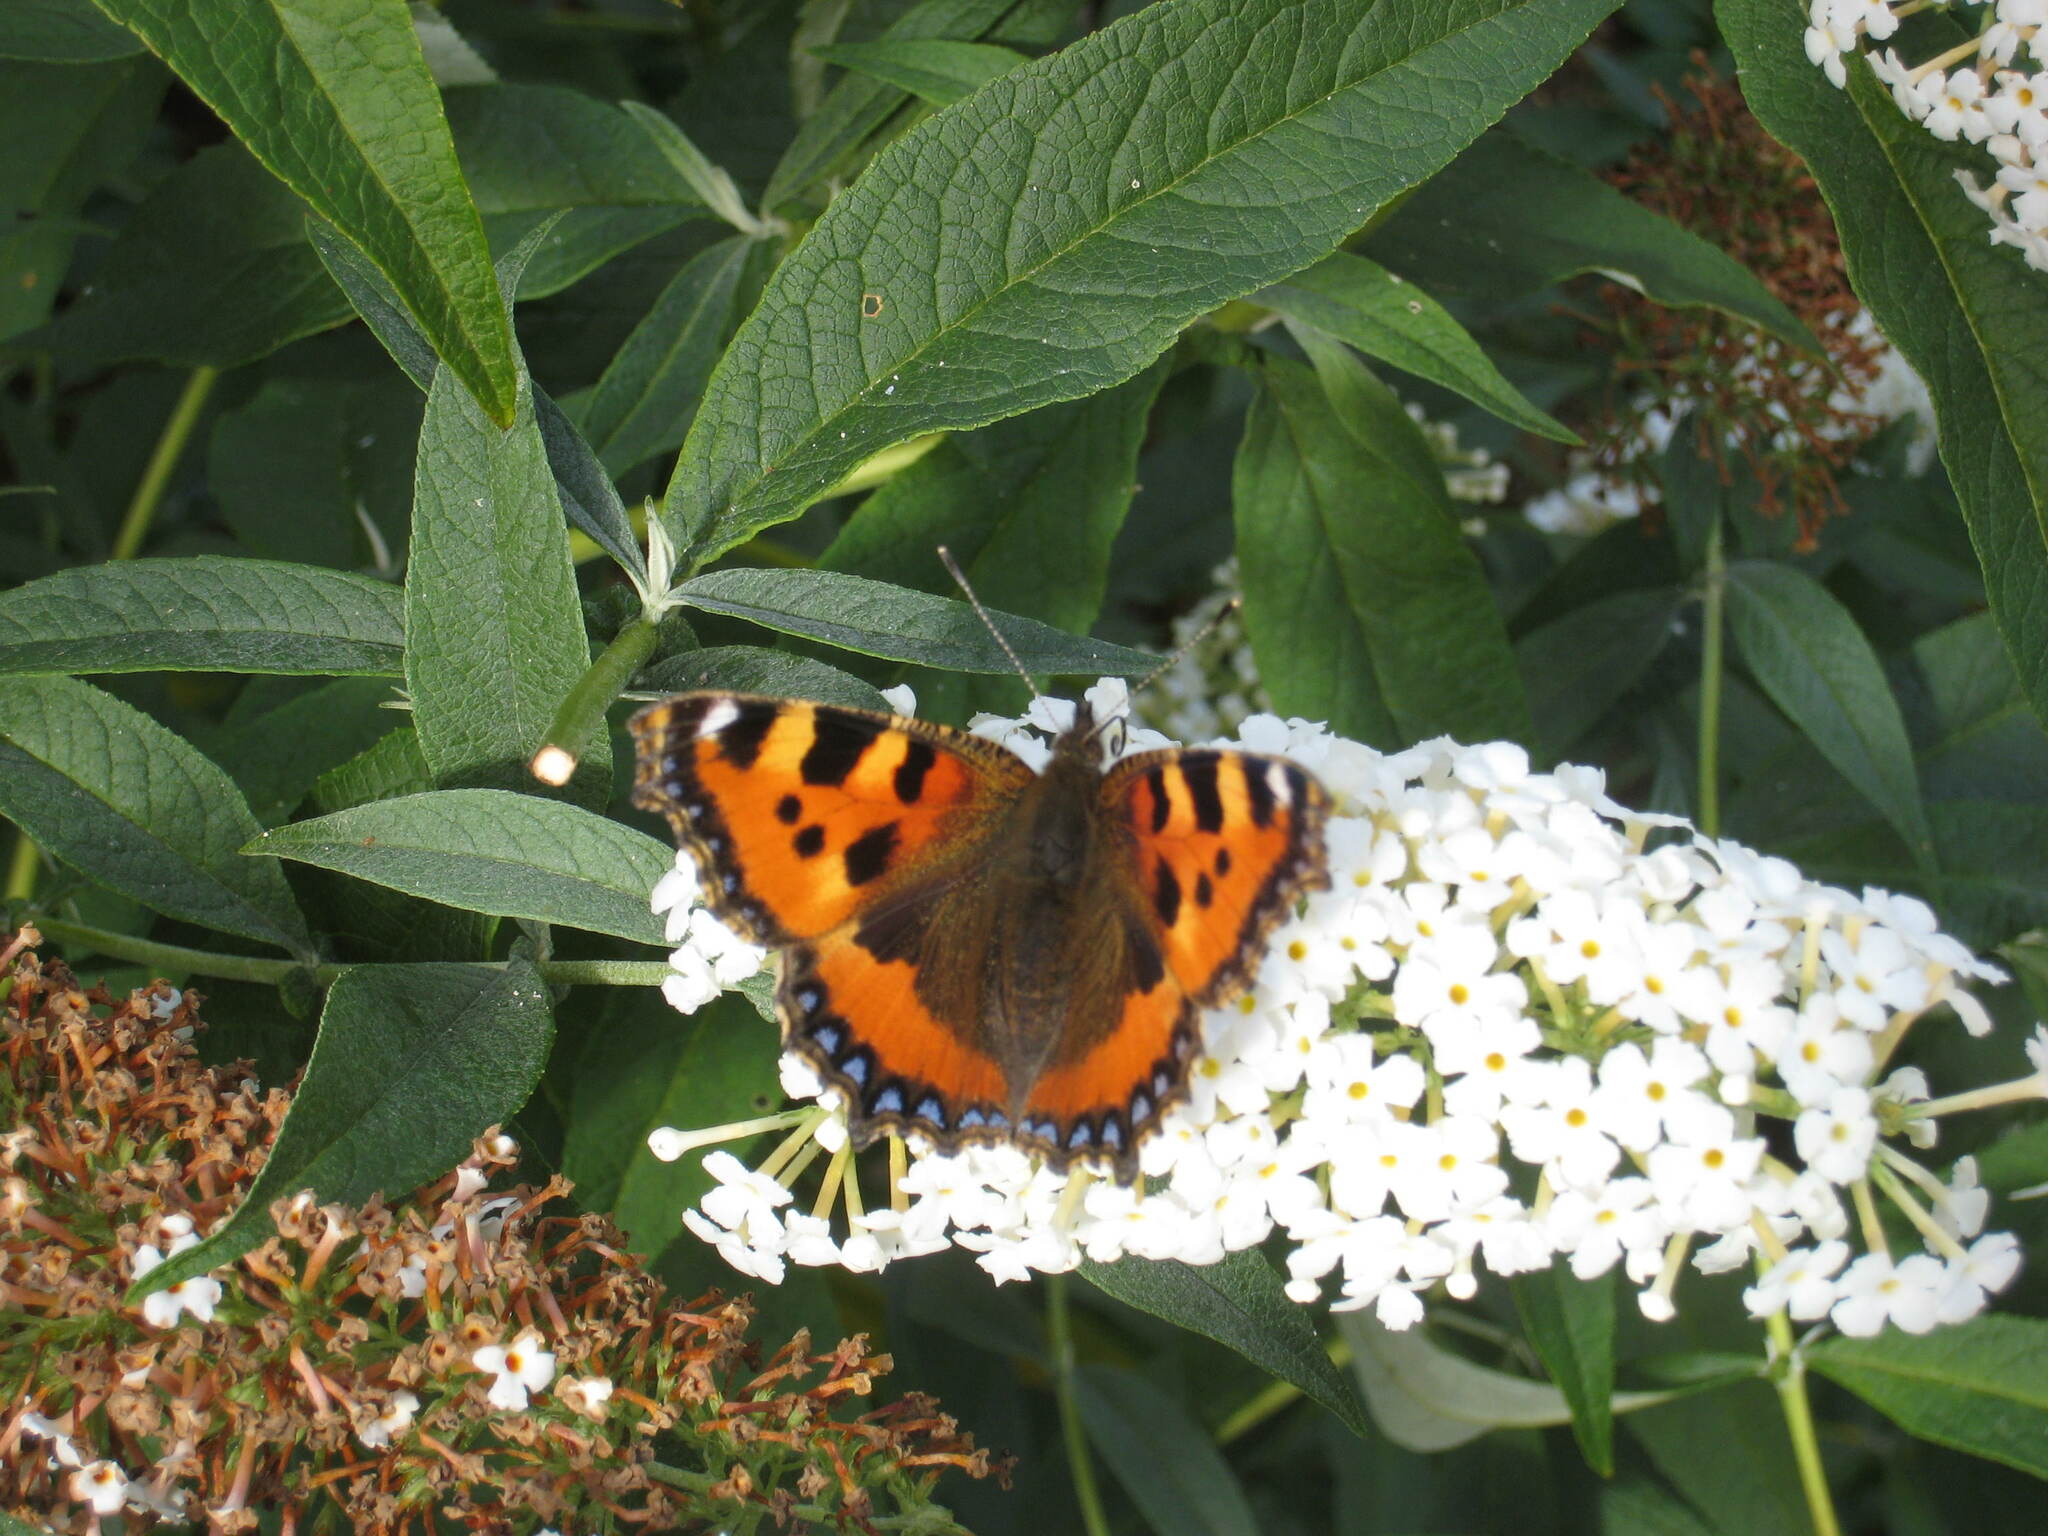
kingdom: Animalia
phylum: Arthropoda
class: Insecta
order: Lepidoptera
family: Nymphalidae
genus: Aglais
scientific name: Aglais urticae
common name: Small tortoiseshell
